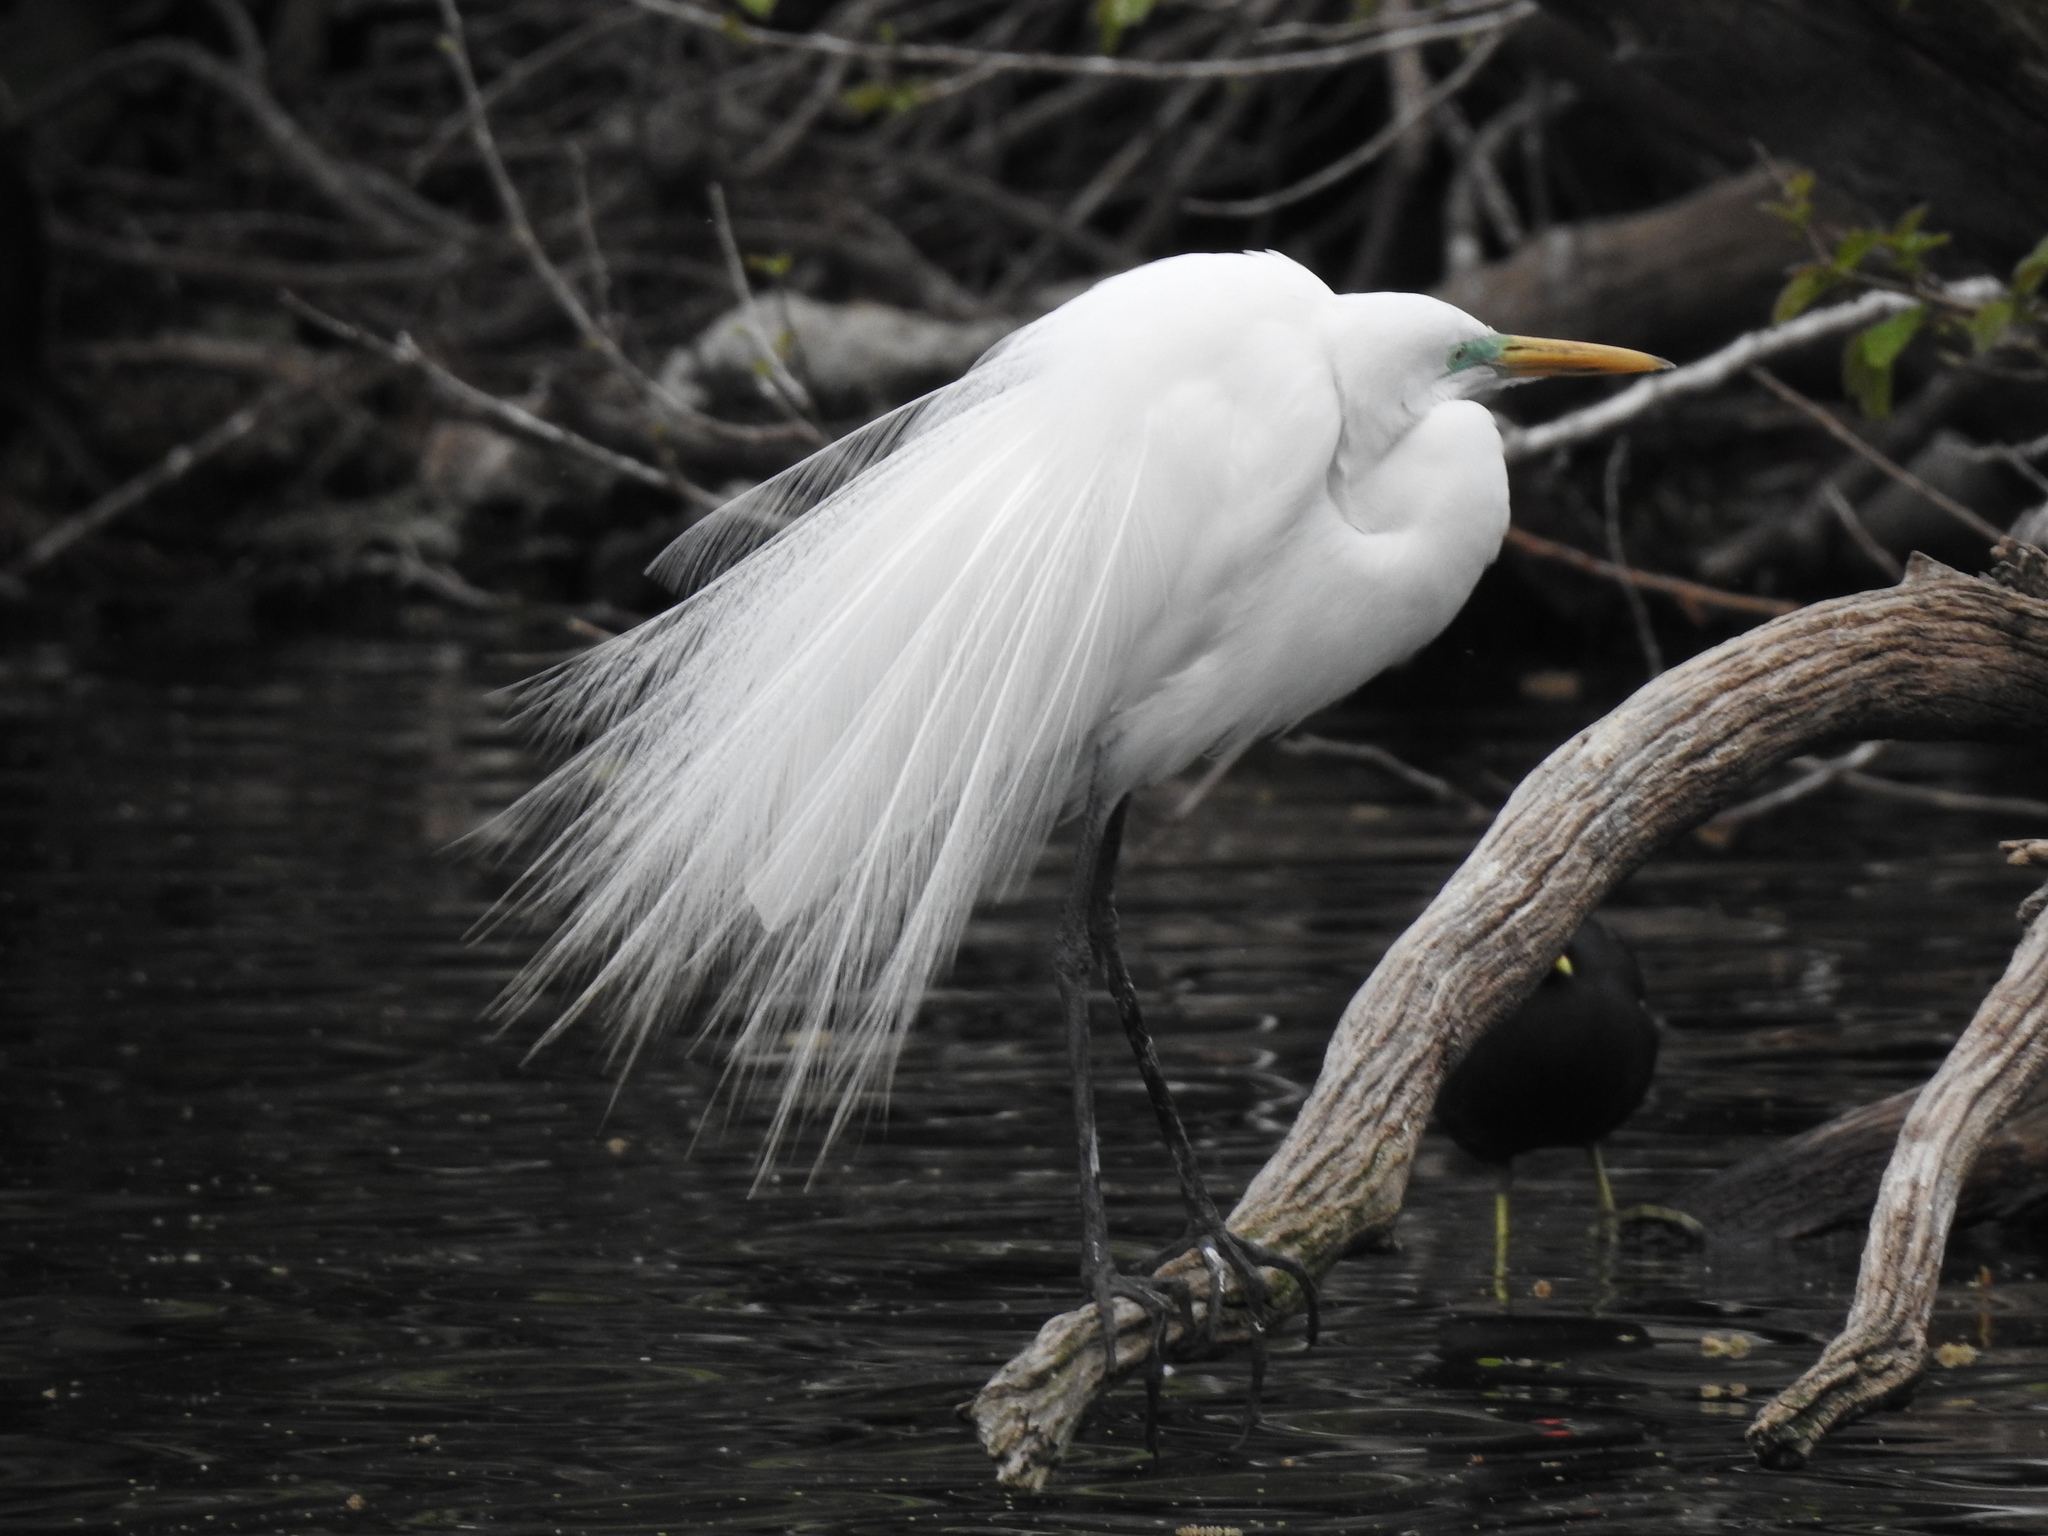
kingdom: Animalia
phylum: Chordata
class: Aves
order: Pelecaniformes
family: Ardeidae
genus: Ardea
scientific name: Ardea alba
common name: Great egret
